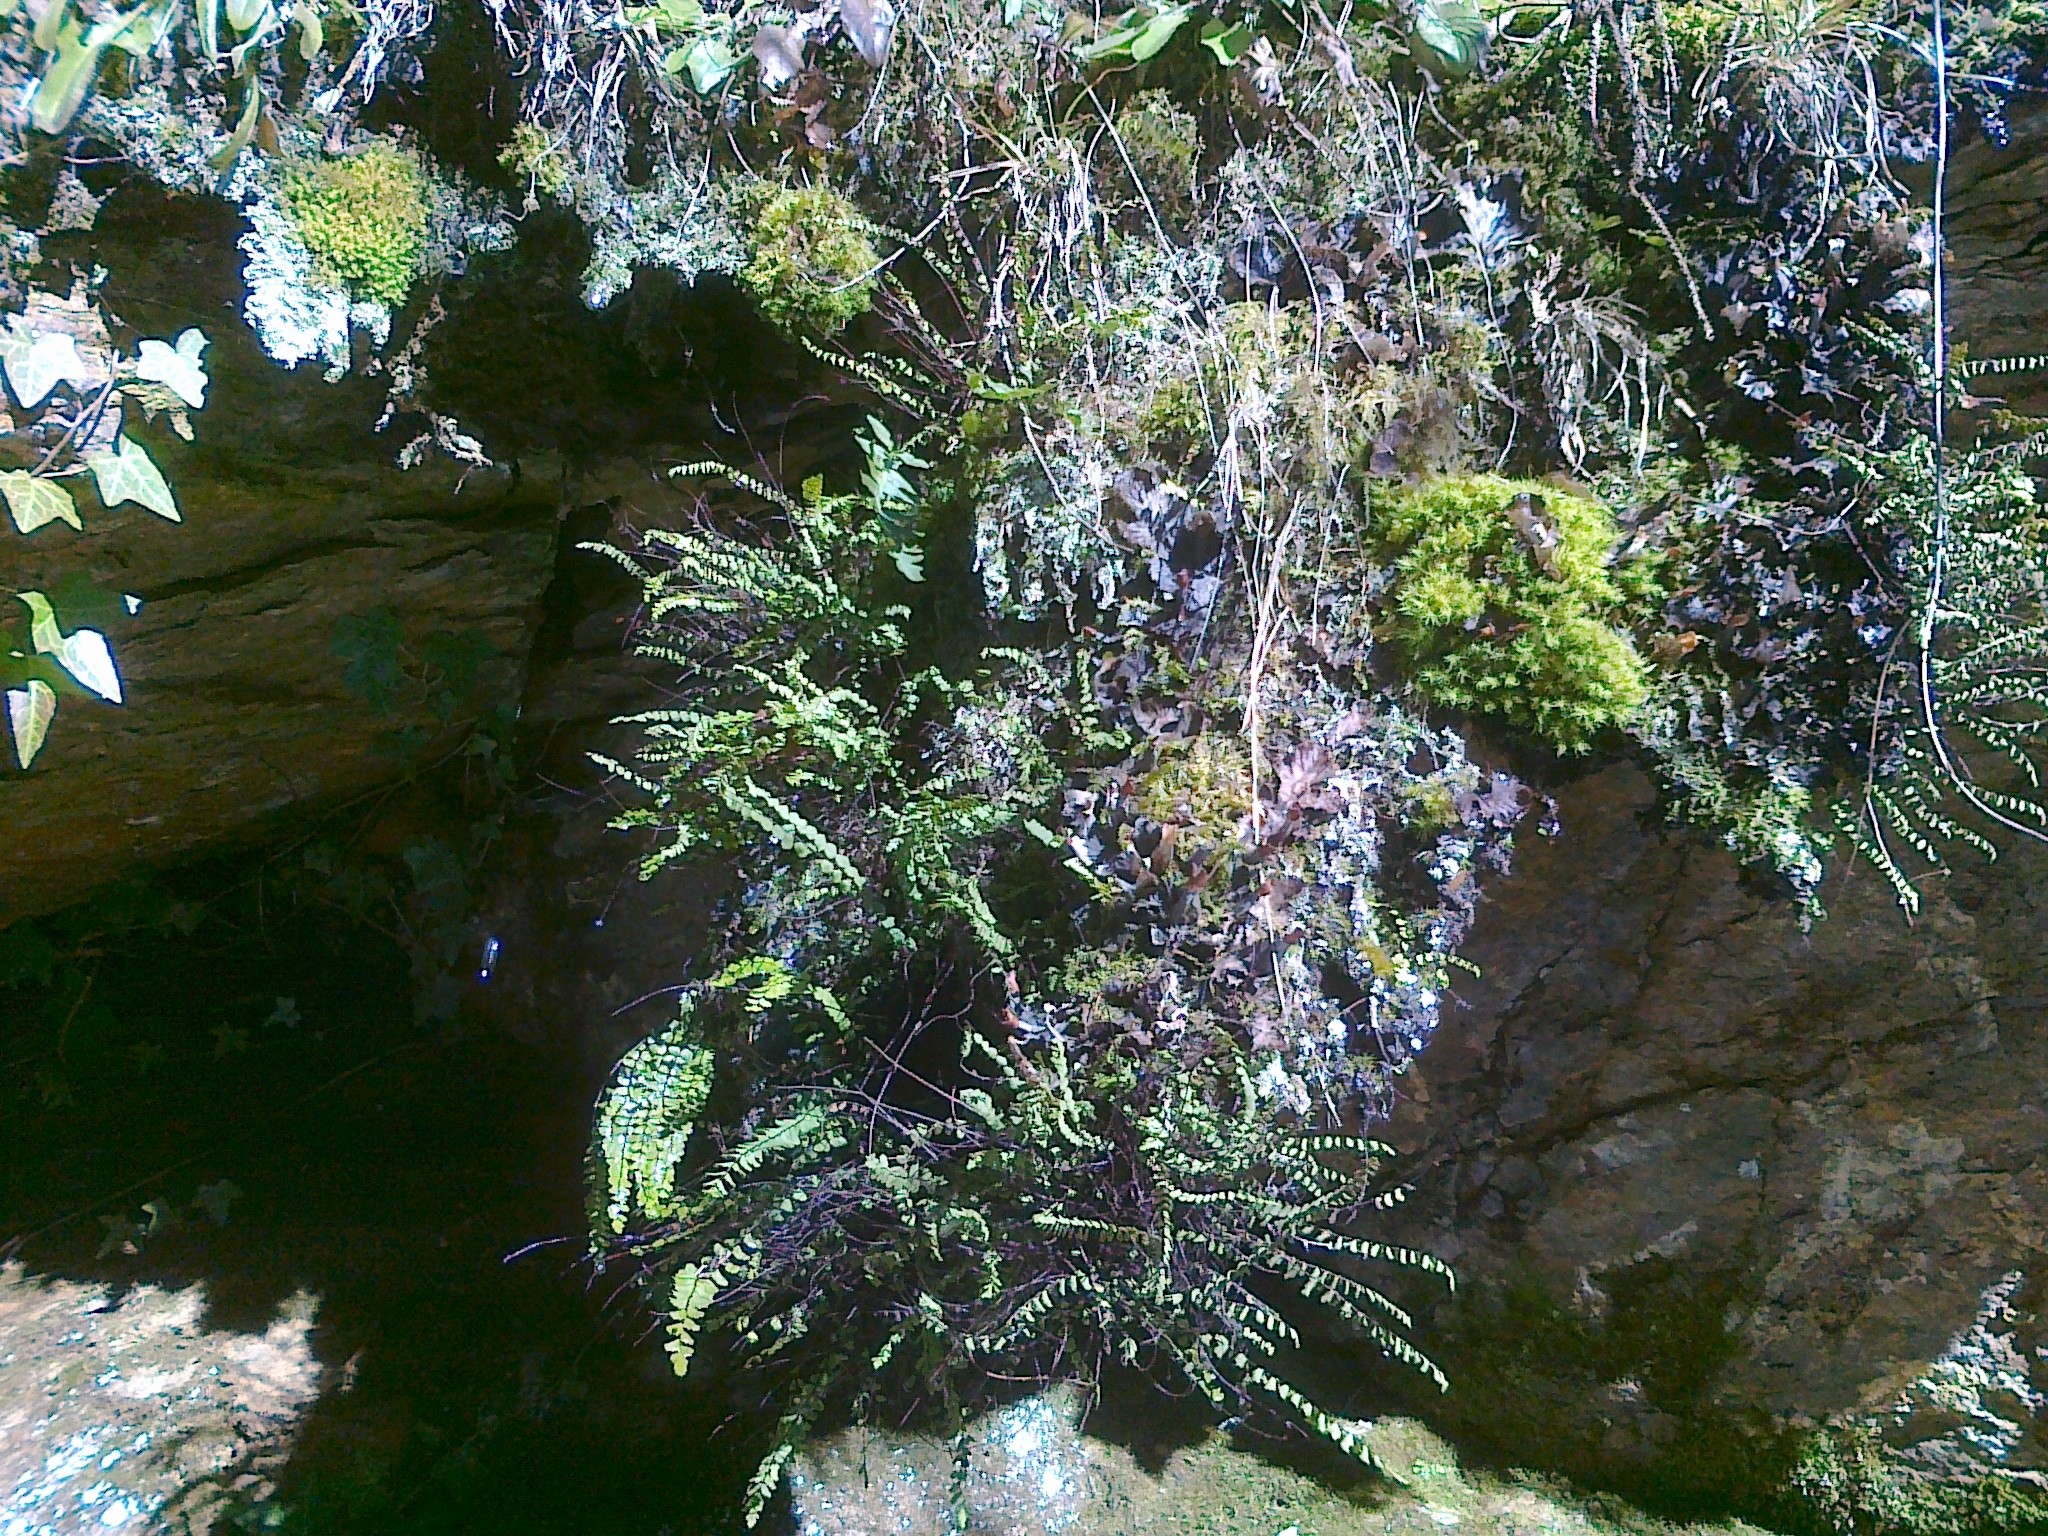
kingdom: Fungi
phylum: Ascomycota
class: Lecanoromycetes
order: Peltigerales
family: Peltigeraceae
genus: Peltigera
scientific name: Peltigera
